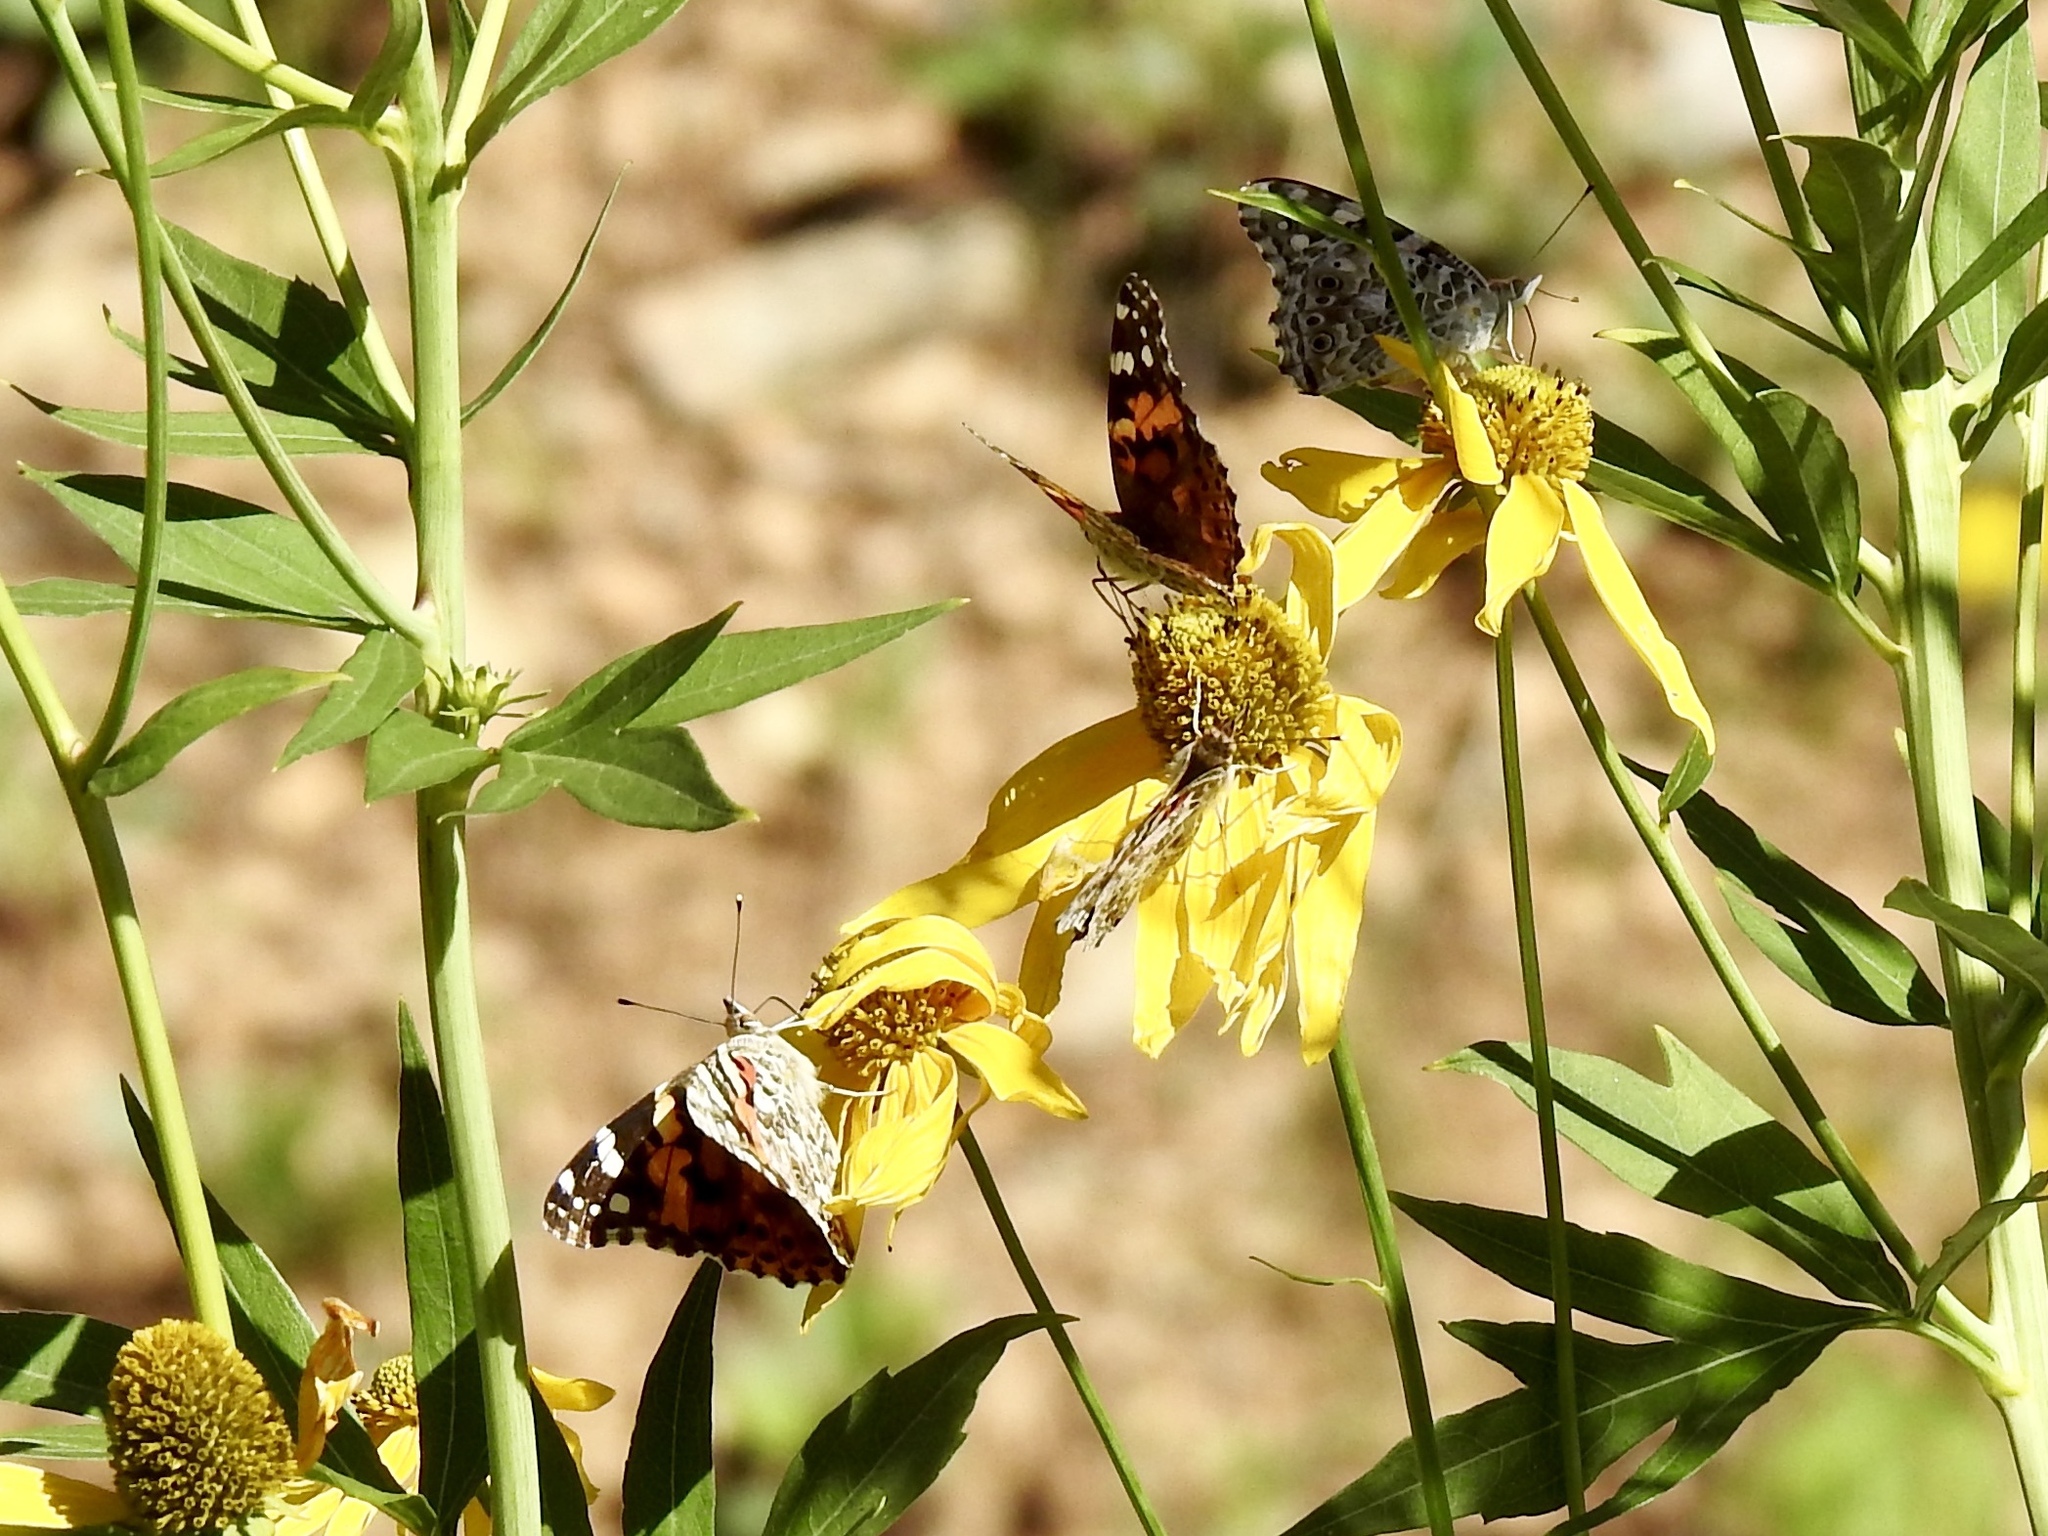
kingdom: Animalia
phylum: Arthropoda
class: Insecta
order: Lepidoptera
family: Nymphalidae
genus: Vanessa
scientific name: Vanessa cardui
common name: Painted lady
